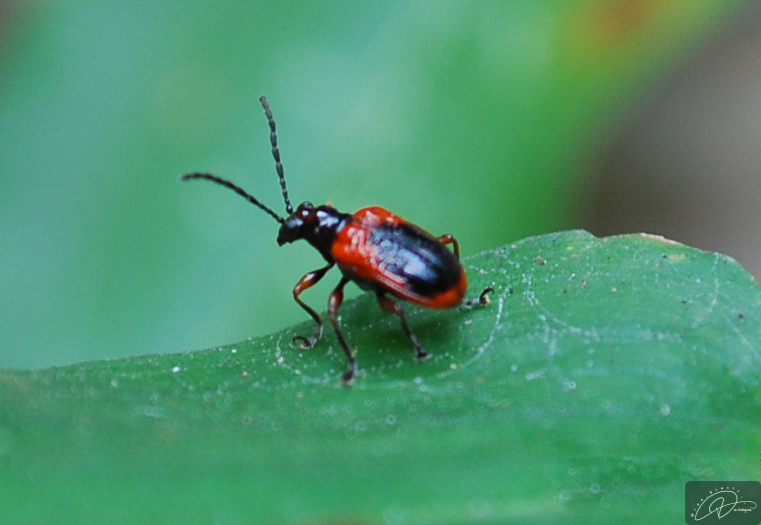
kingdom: Animalia
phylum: Arthropoda
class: Insecta
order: Coleoptera
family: Chrysomelidae
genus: Neolema
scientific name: Neolema
